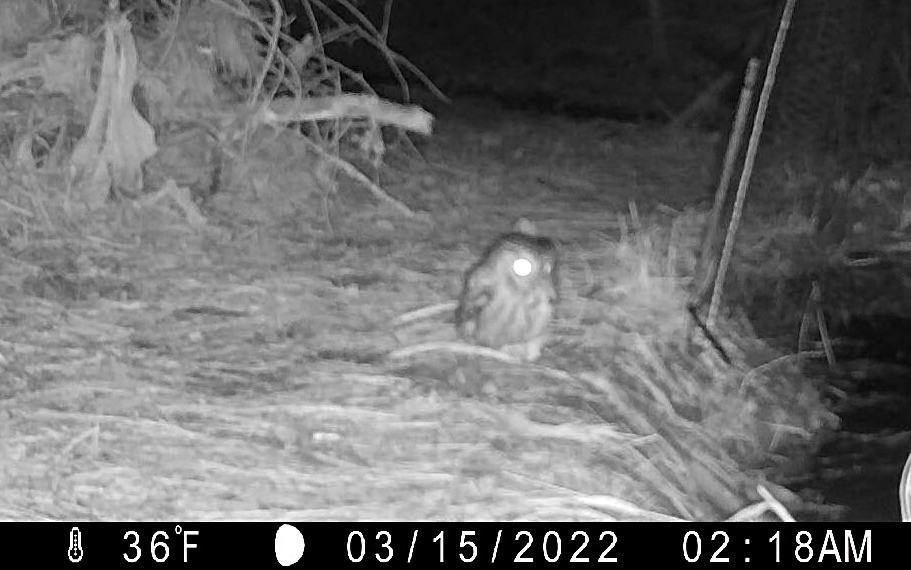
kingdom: Animalia
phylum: Chordata
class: Aves
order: Strigiformes
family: Strigidae
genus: Megascops
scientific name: Megascops asio
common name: Eastern screech-owl
